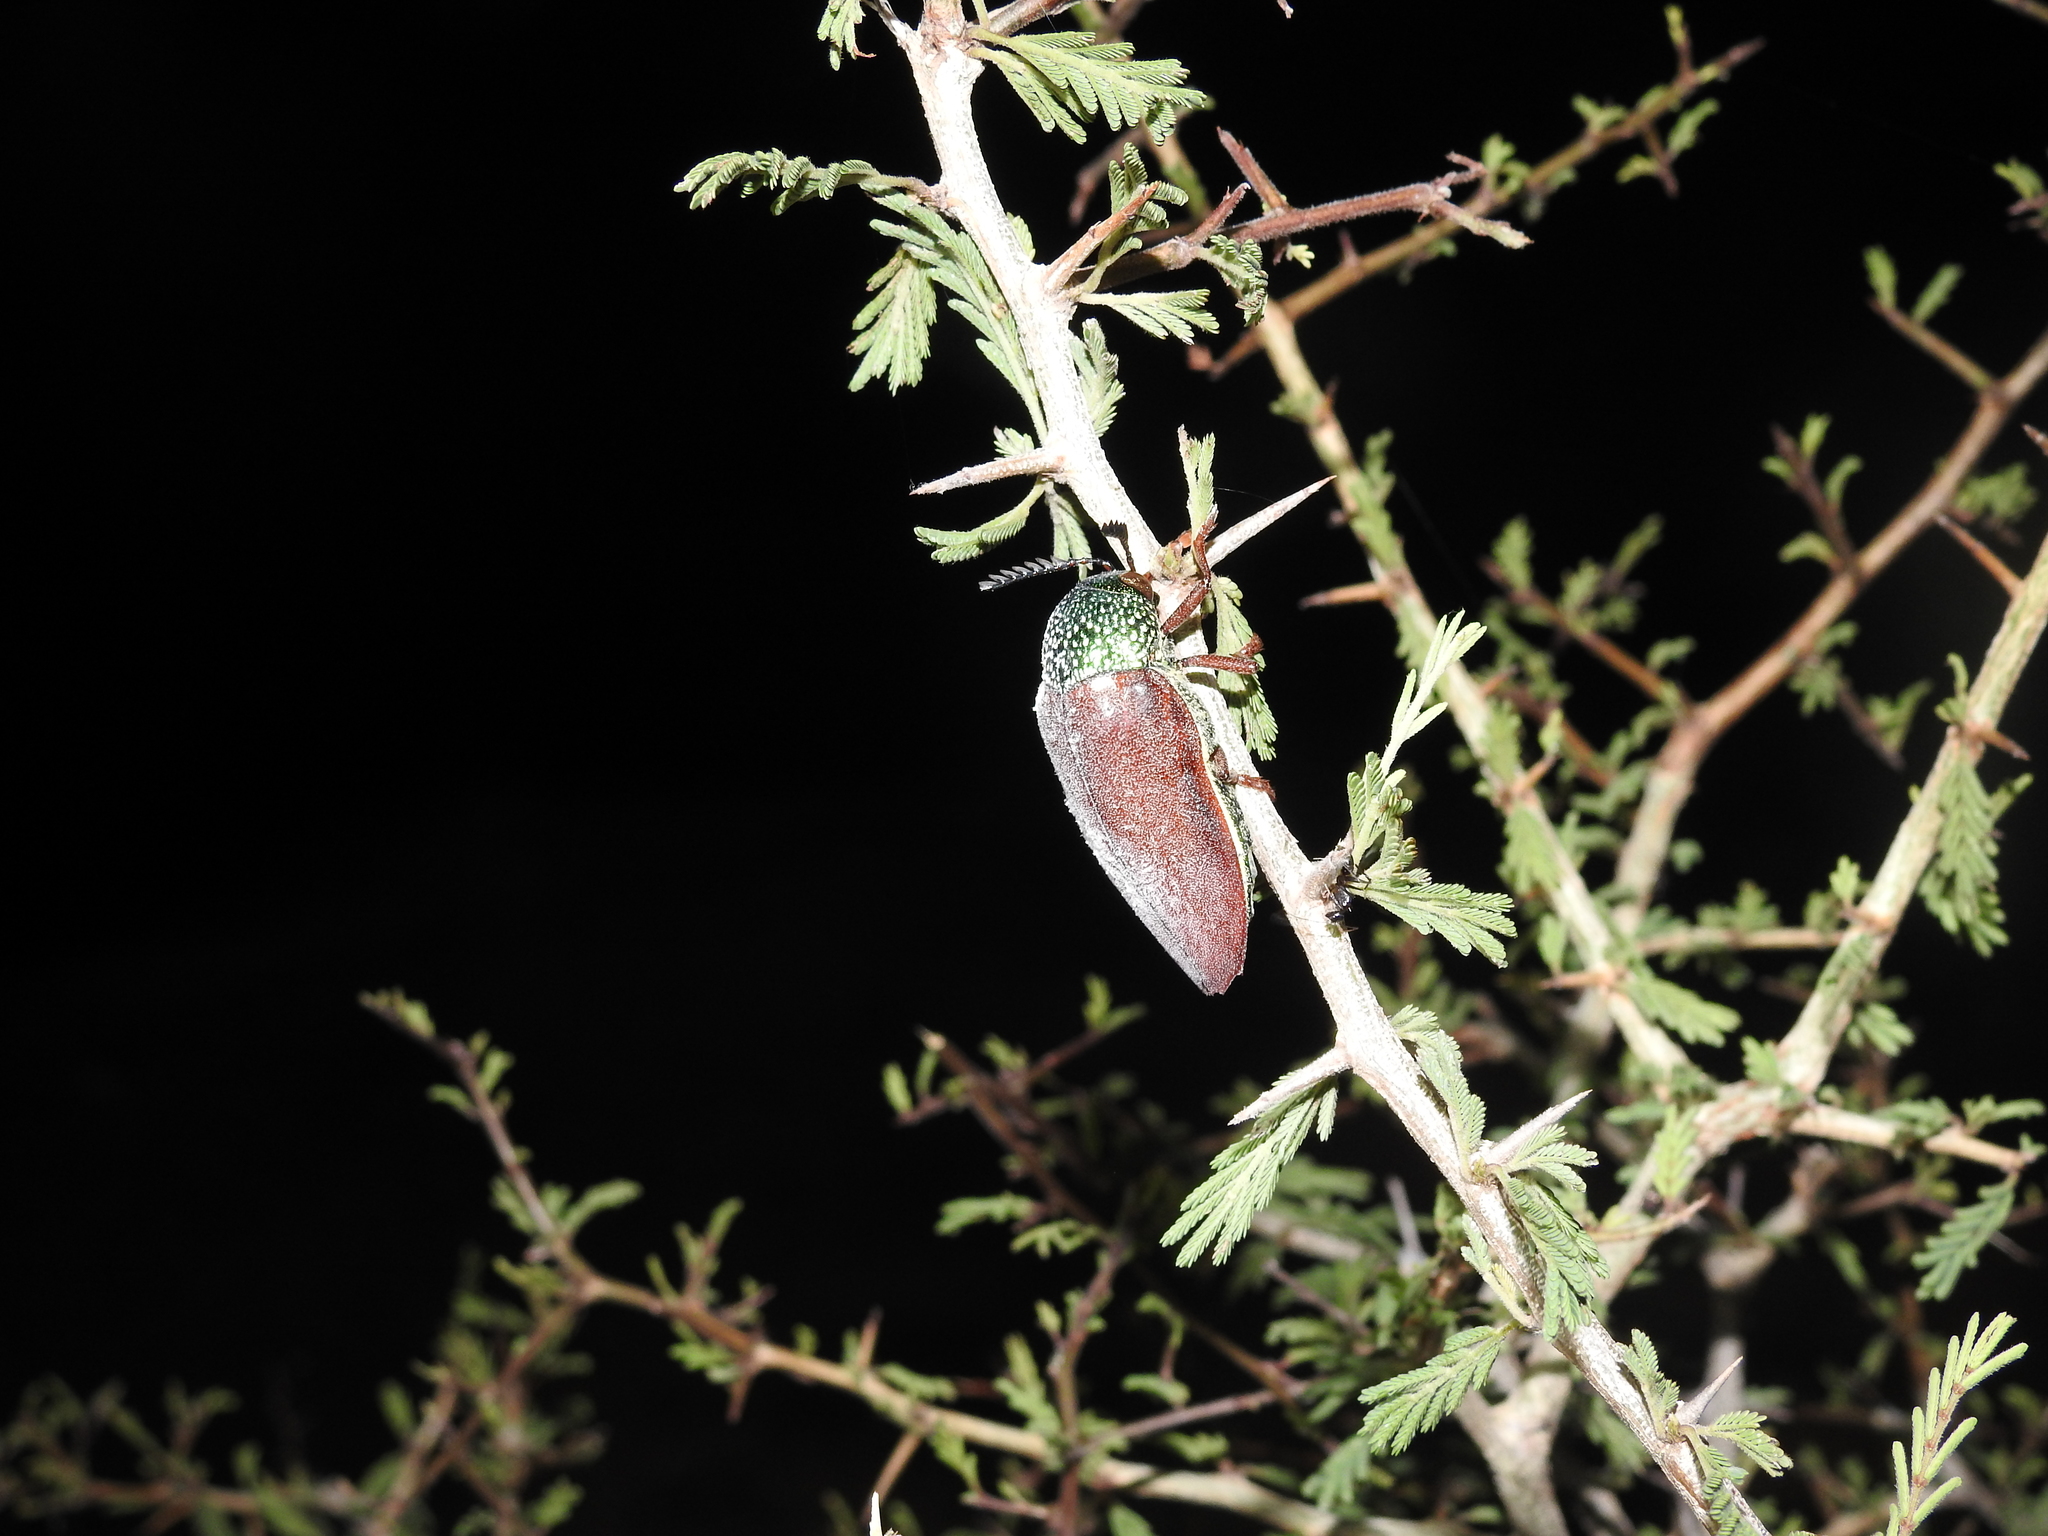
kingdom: Animalia
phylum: Arthropoda
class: Insecta
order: Coleoptera
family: Buprestidae
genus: Sternocera
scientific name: Sternocera chrysis
